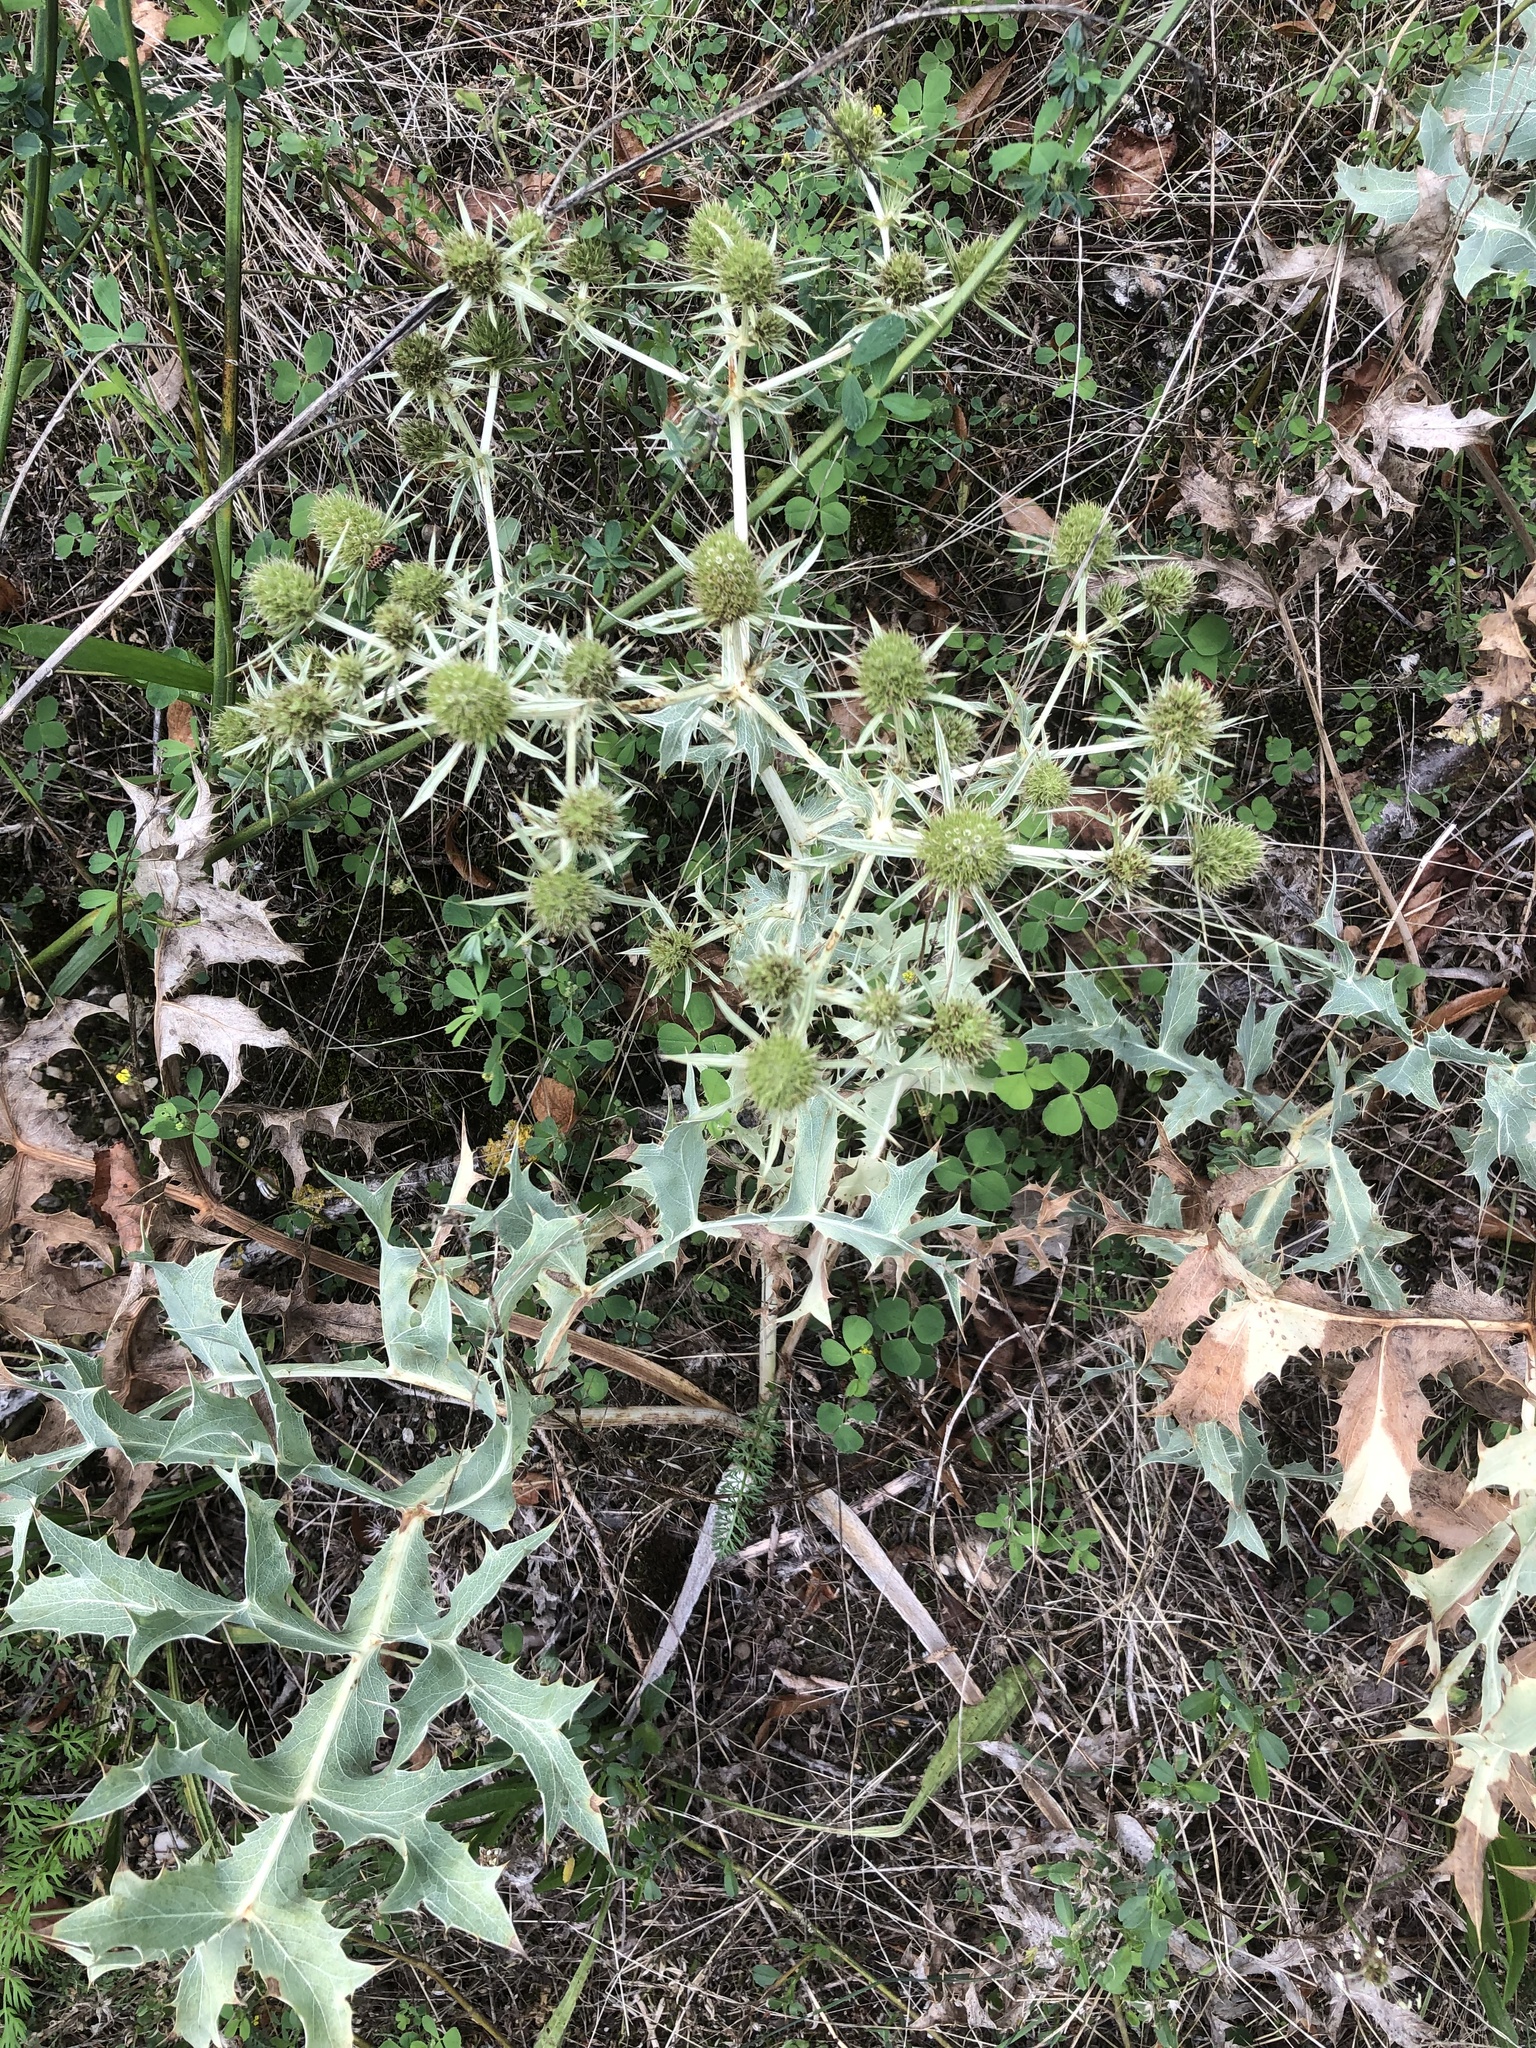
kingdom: Plantae
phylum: Tracheophyta
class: Magnoliopsida
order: Apiales
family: Apiaceae
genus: Eryngium
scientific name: Eryngium campestre
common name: Field eryngo
